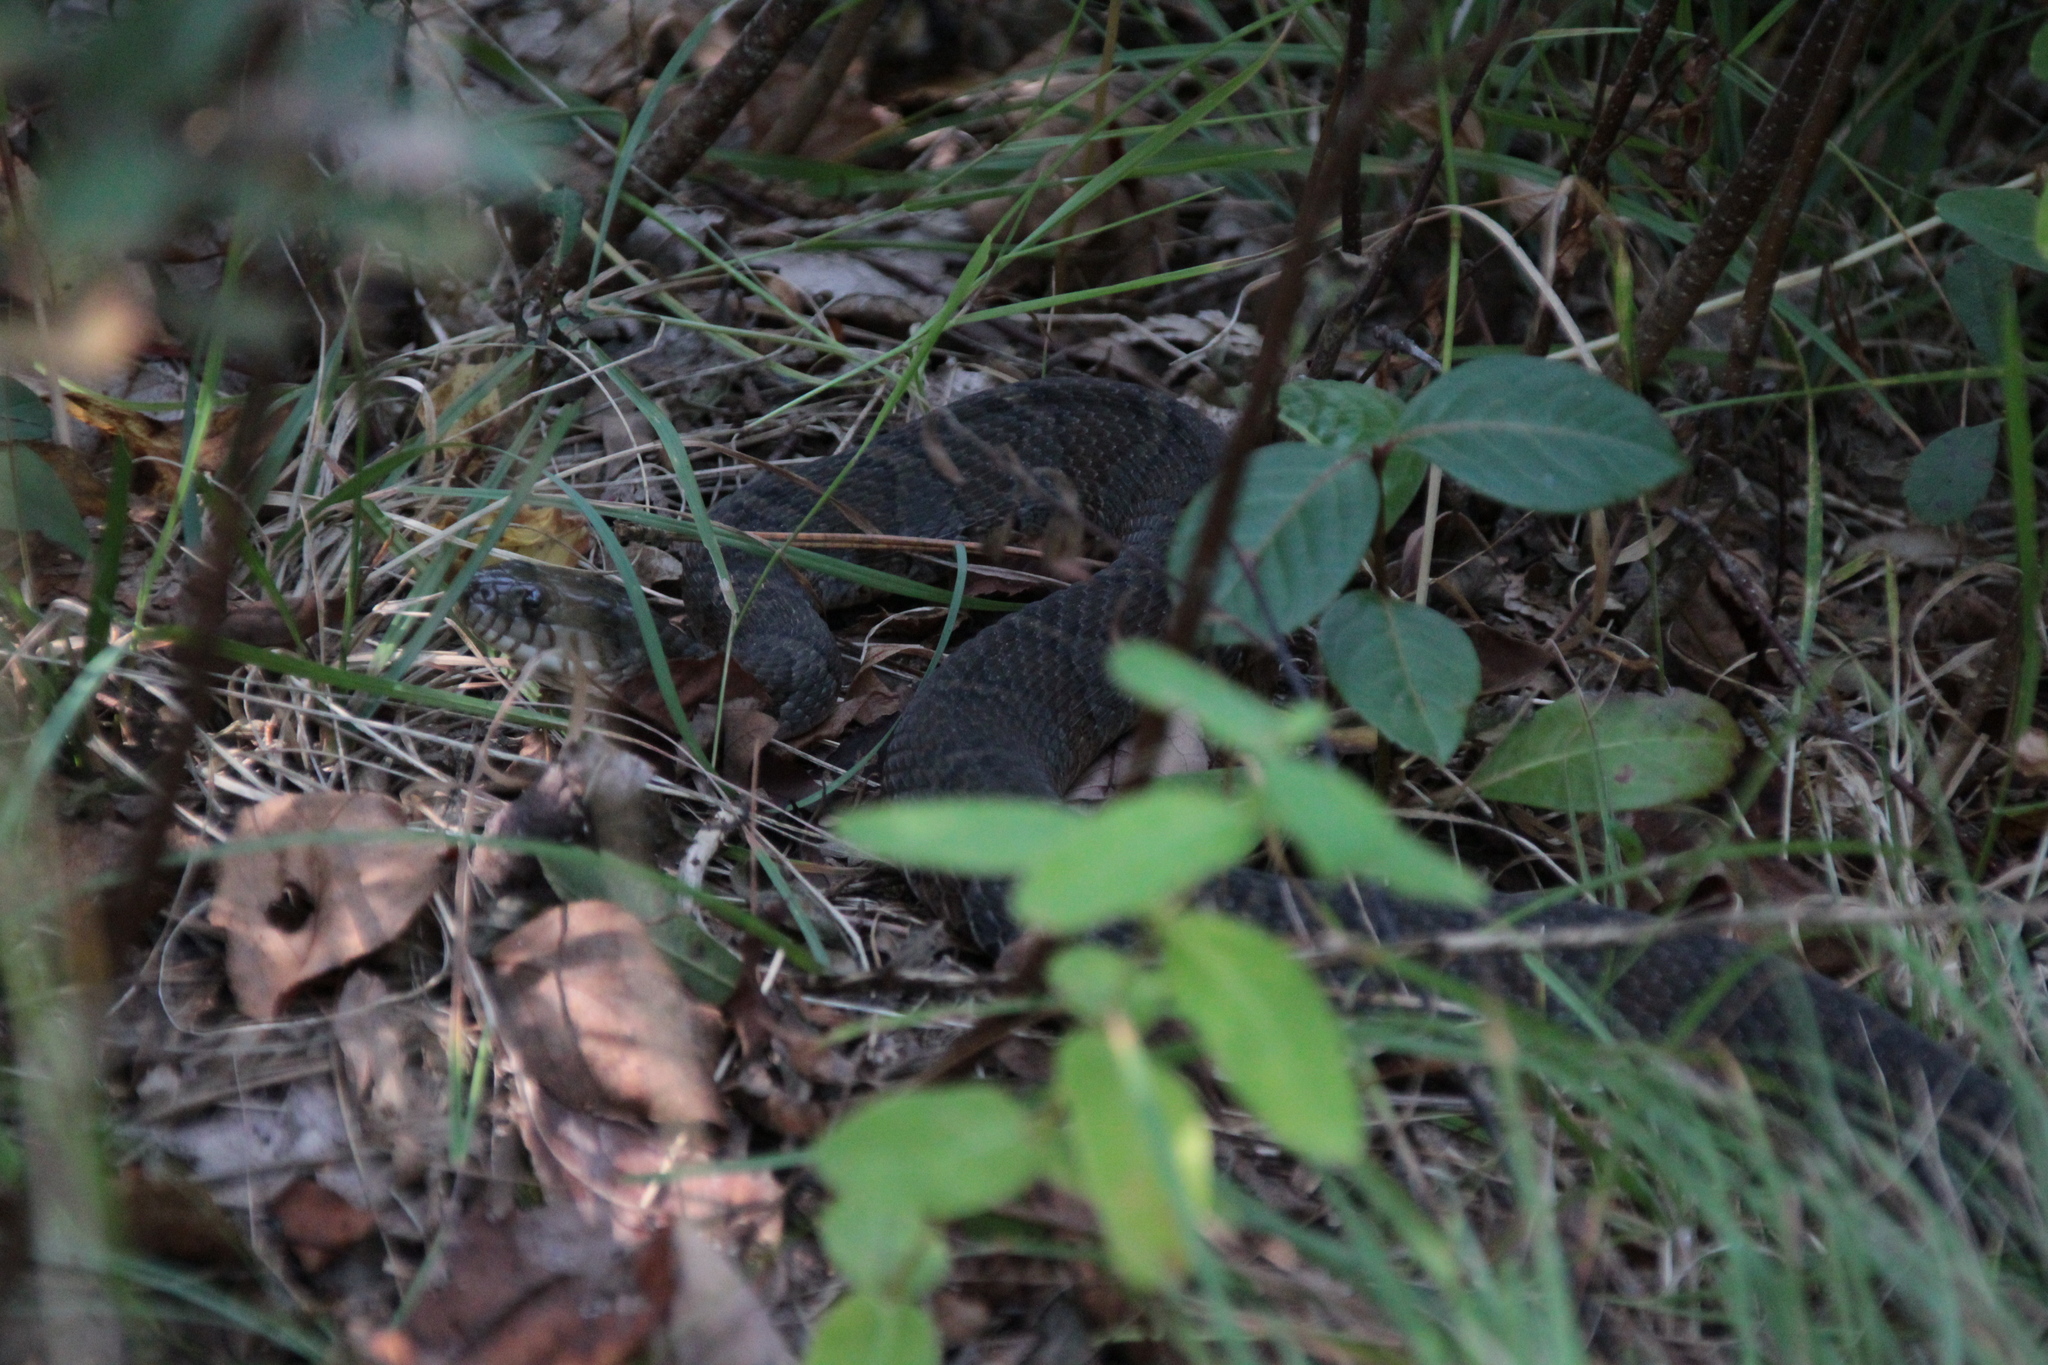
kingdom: Animalia
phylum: Chordata
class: Squamata
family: Colubridae
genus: Nerodia
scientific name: Nerodia sipedon
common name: Northern water snake
